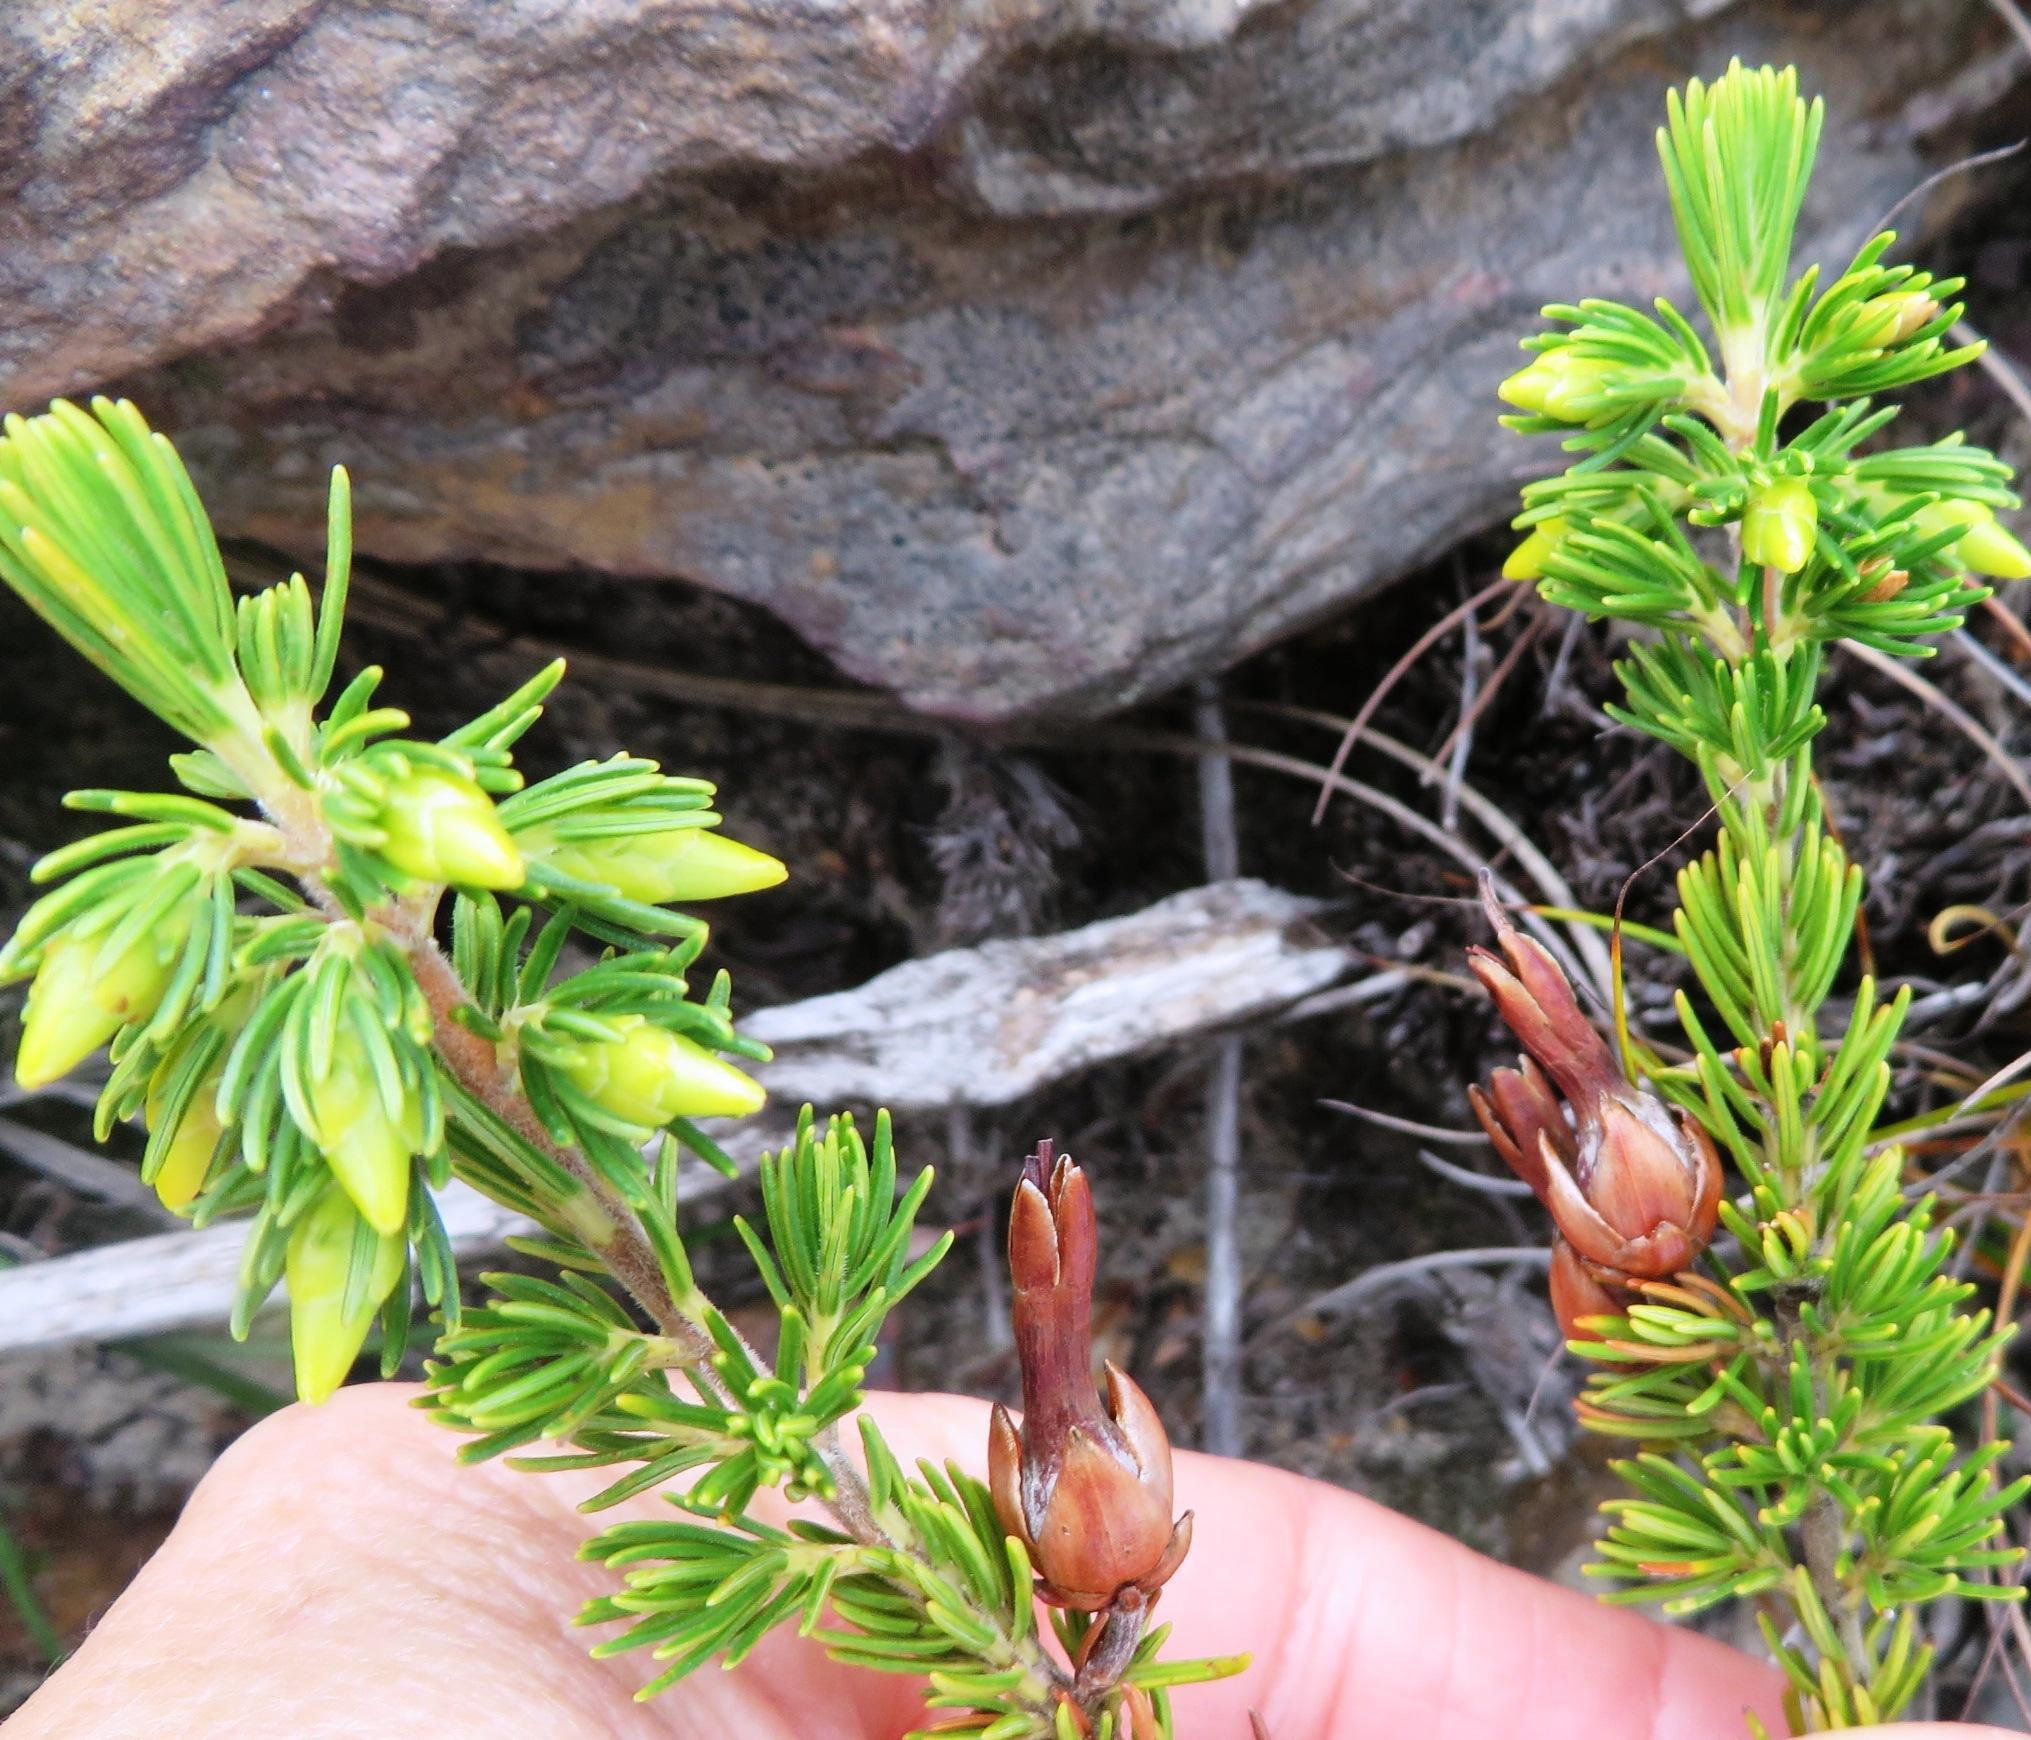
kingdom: Plantae
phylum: Tracheophyta
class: Magnoliopsida
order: Ericales
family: Ericaceae
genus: Erica
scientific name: Erica coccinea
